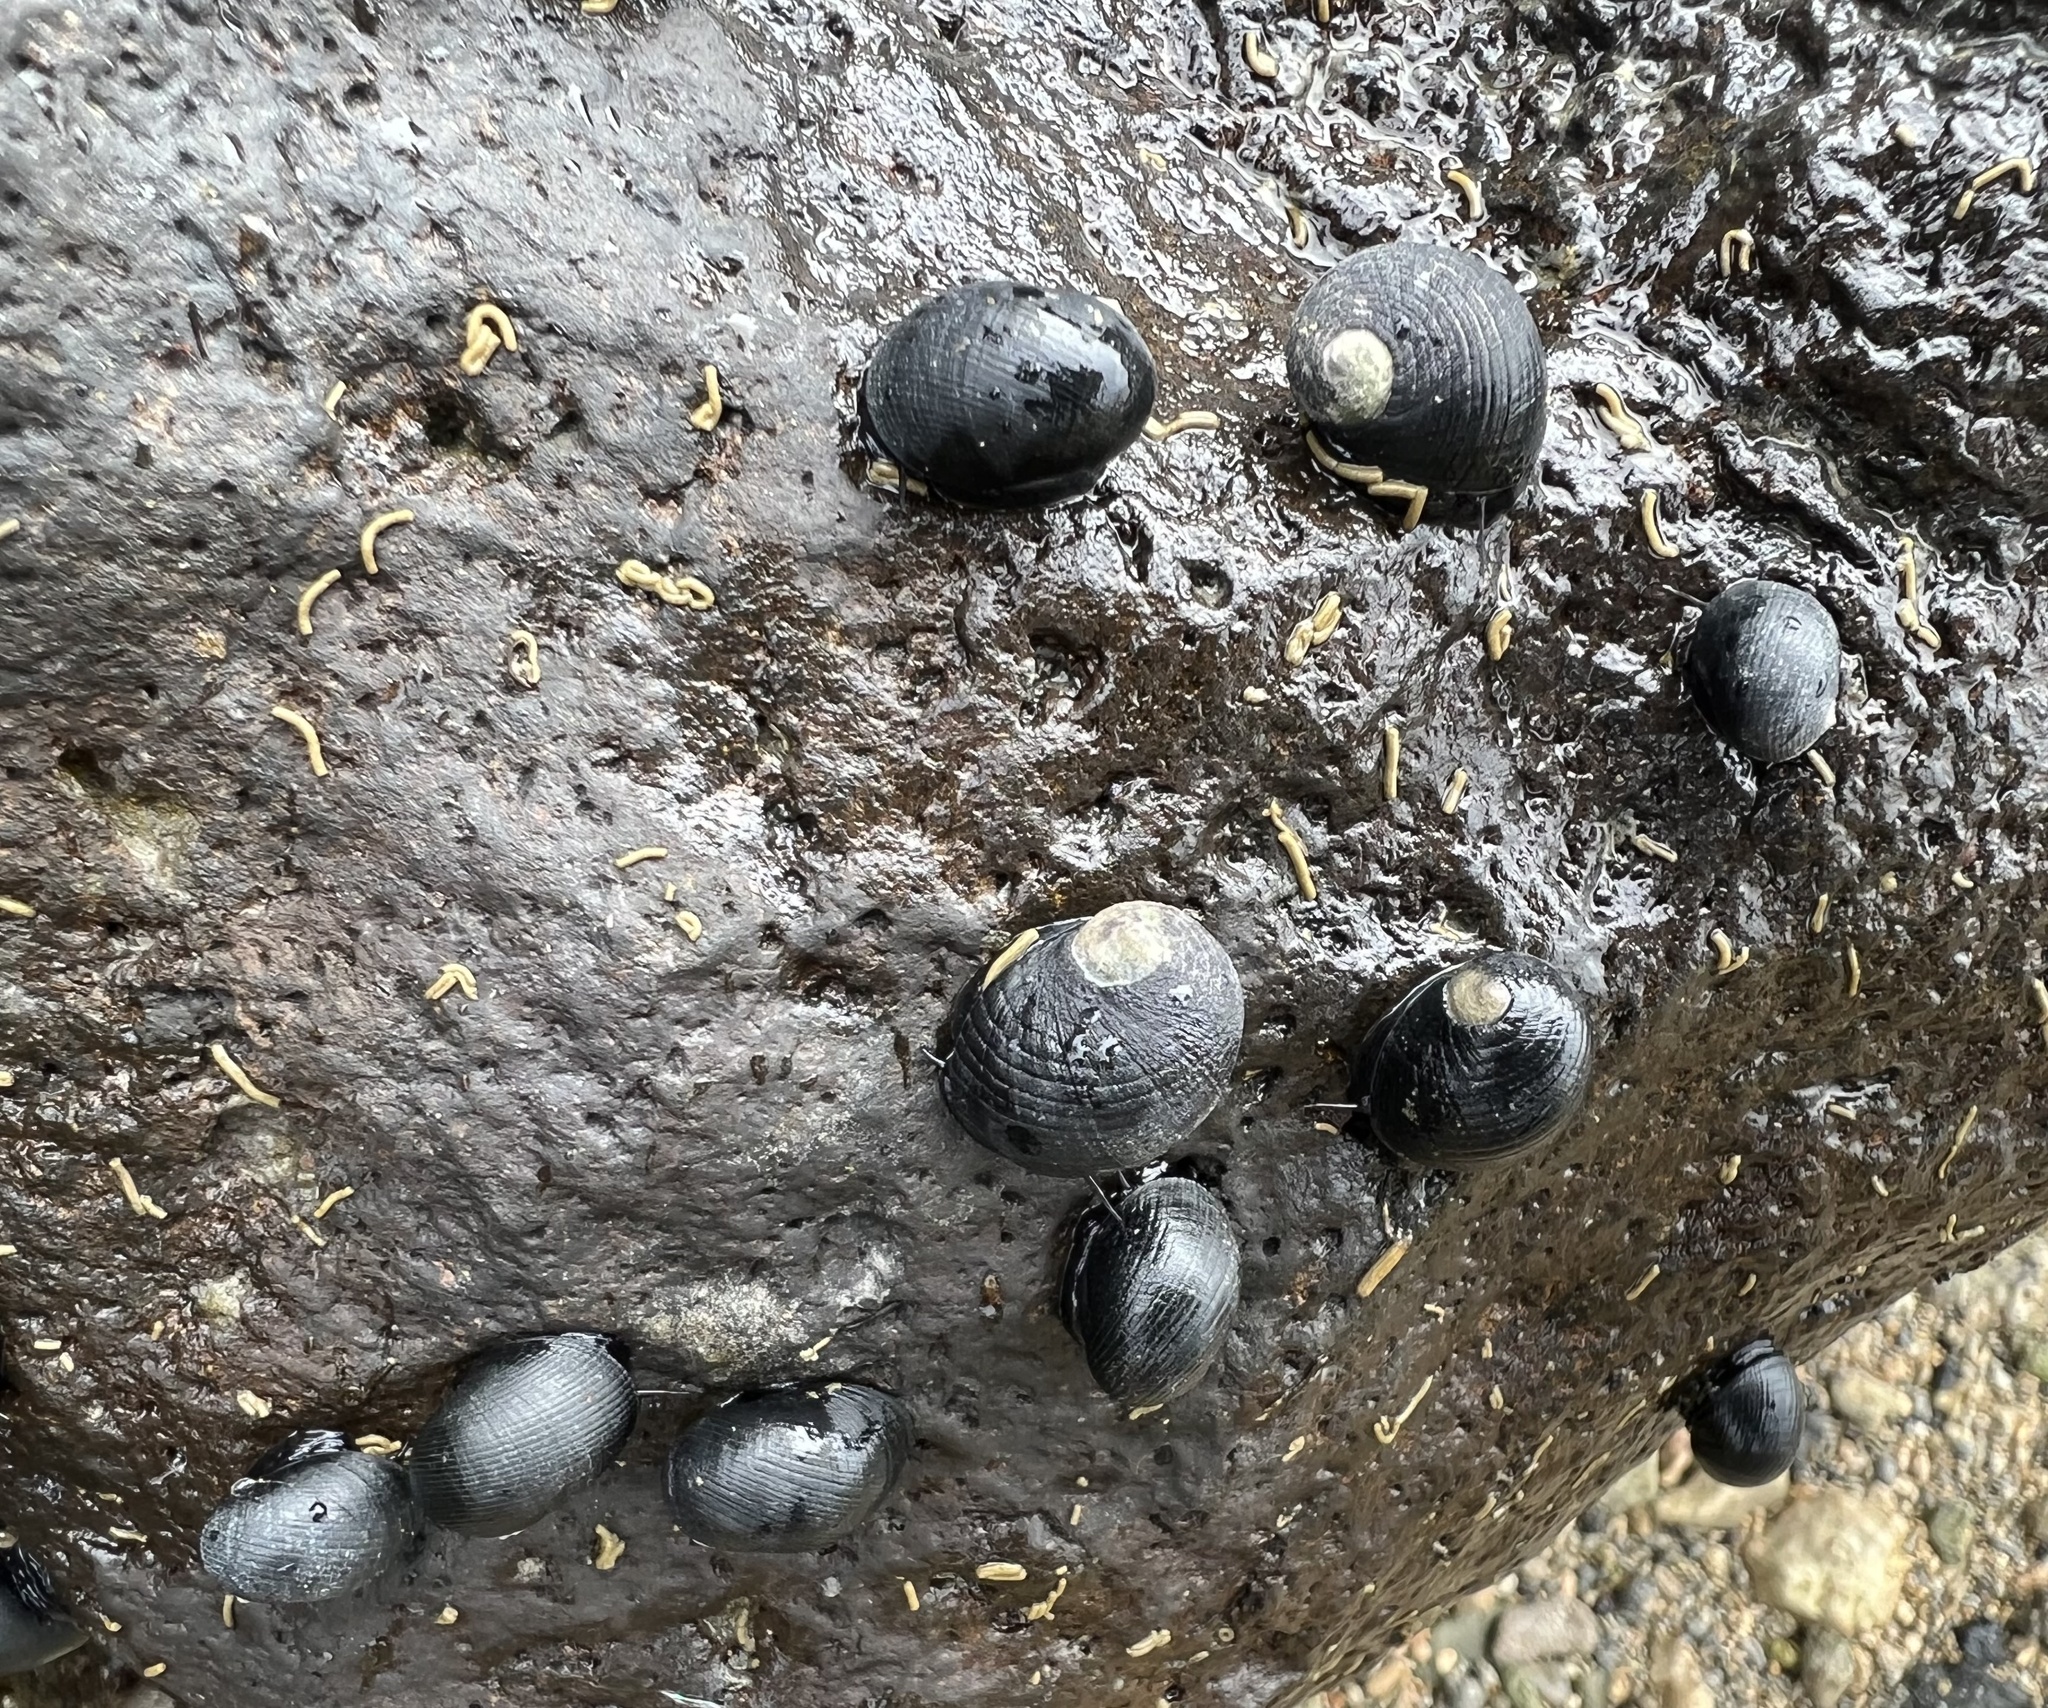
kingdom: Animalia
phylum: Mollusca
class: Gastropoda
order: Cycloneritida
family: Neritidae
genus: Nerita
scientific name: Nerita picea
